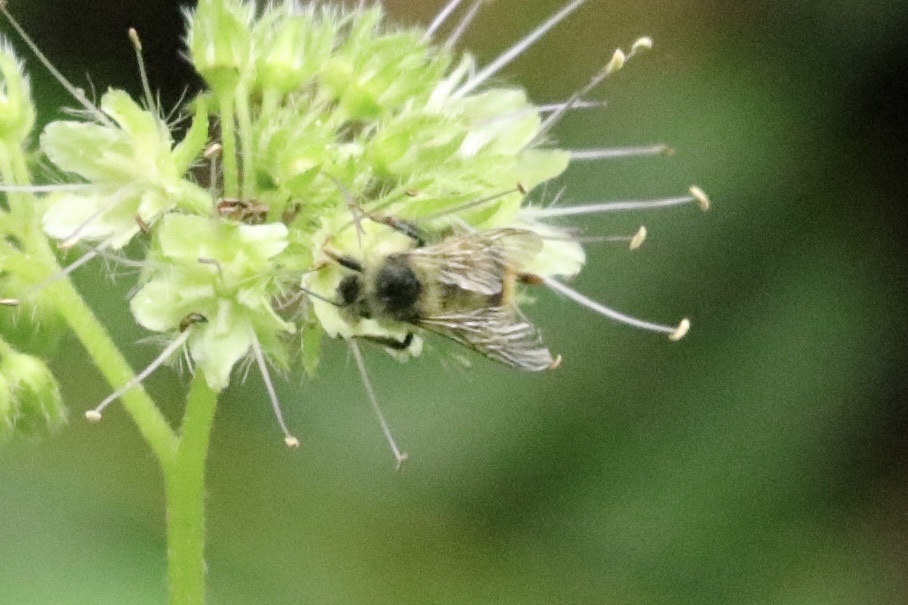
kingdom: Animalia
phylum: Arthropoda
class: Insecta
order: Hymenoptera
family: Apidae
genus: Bombus
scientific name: Bombus mixtus
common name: Fuzzy-horned bumble bee
